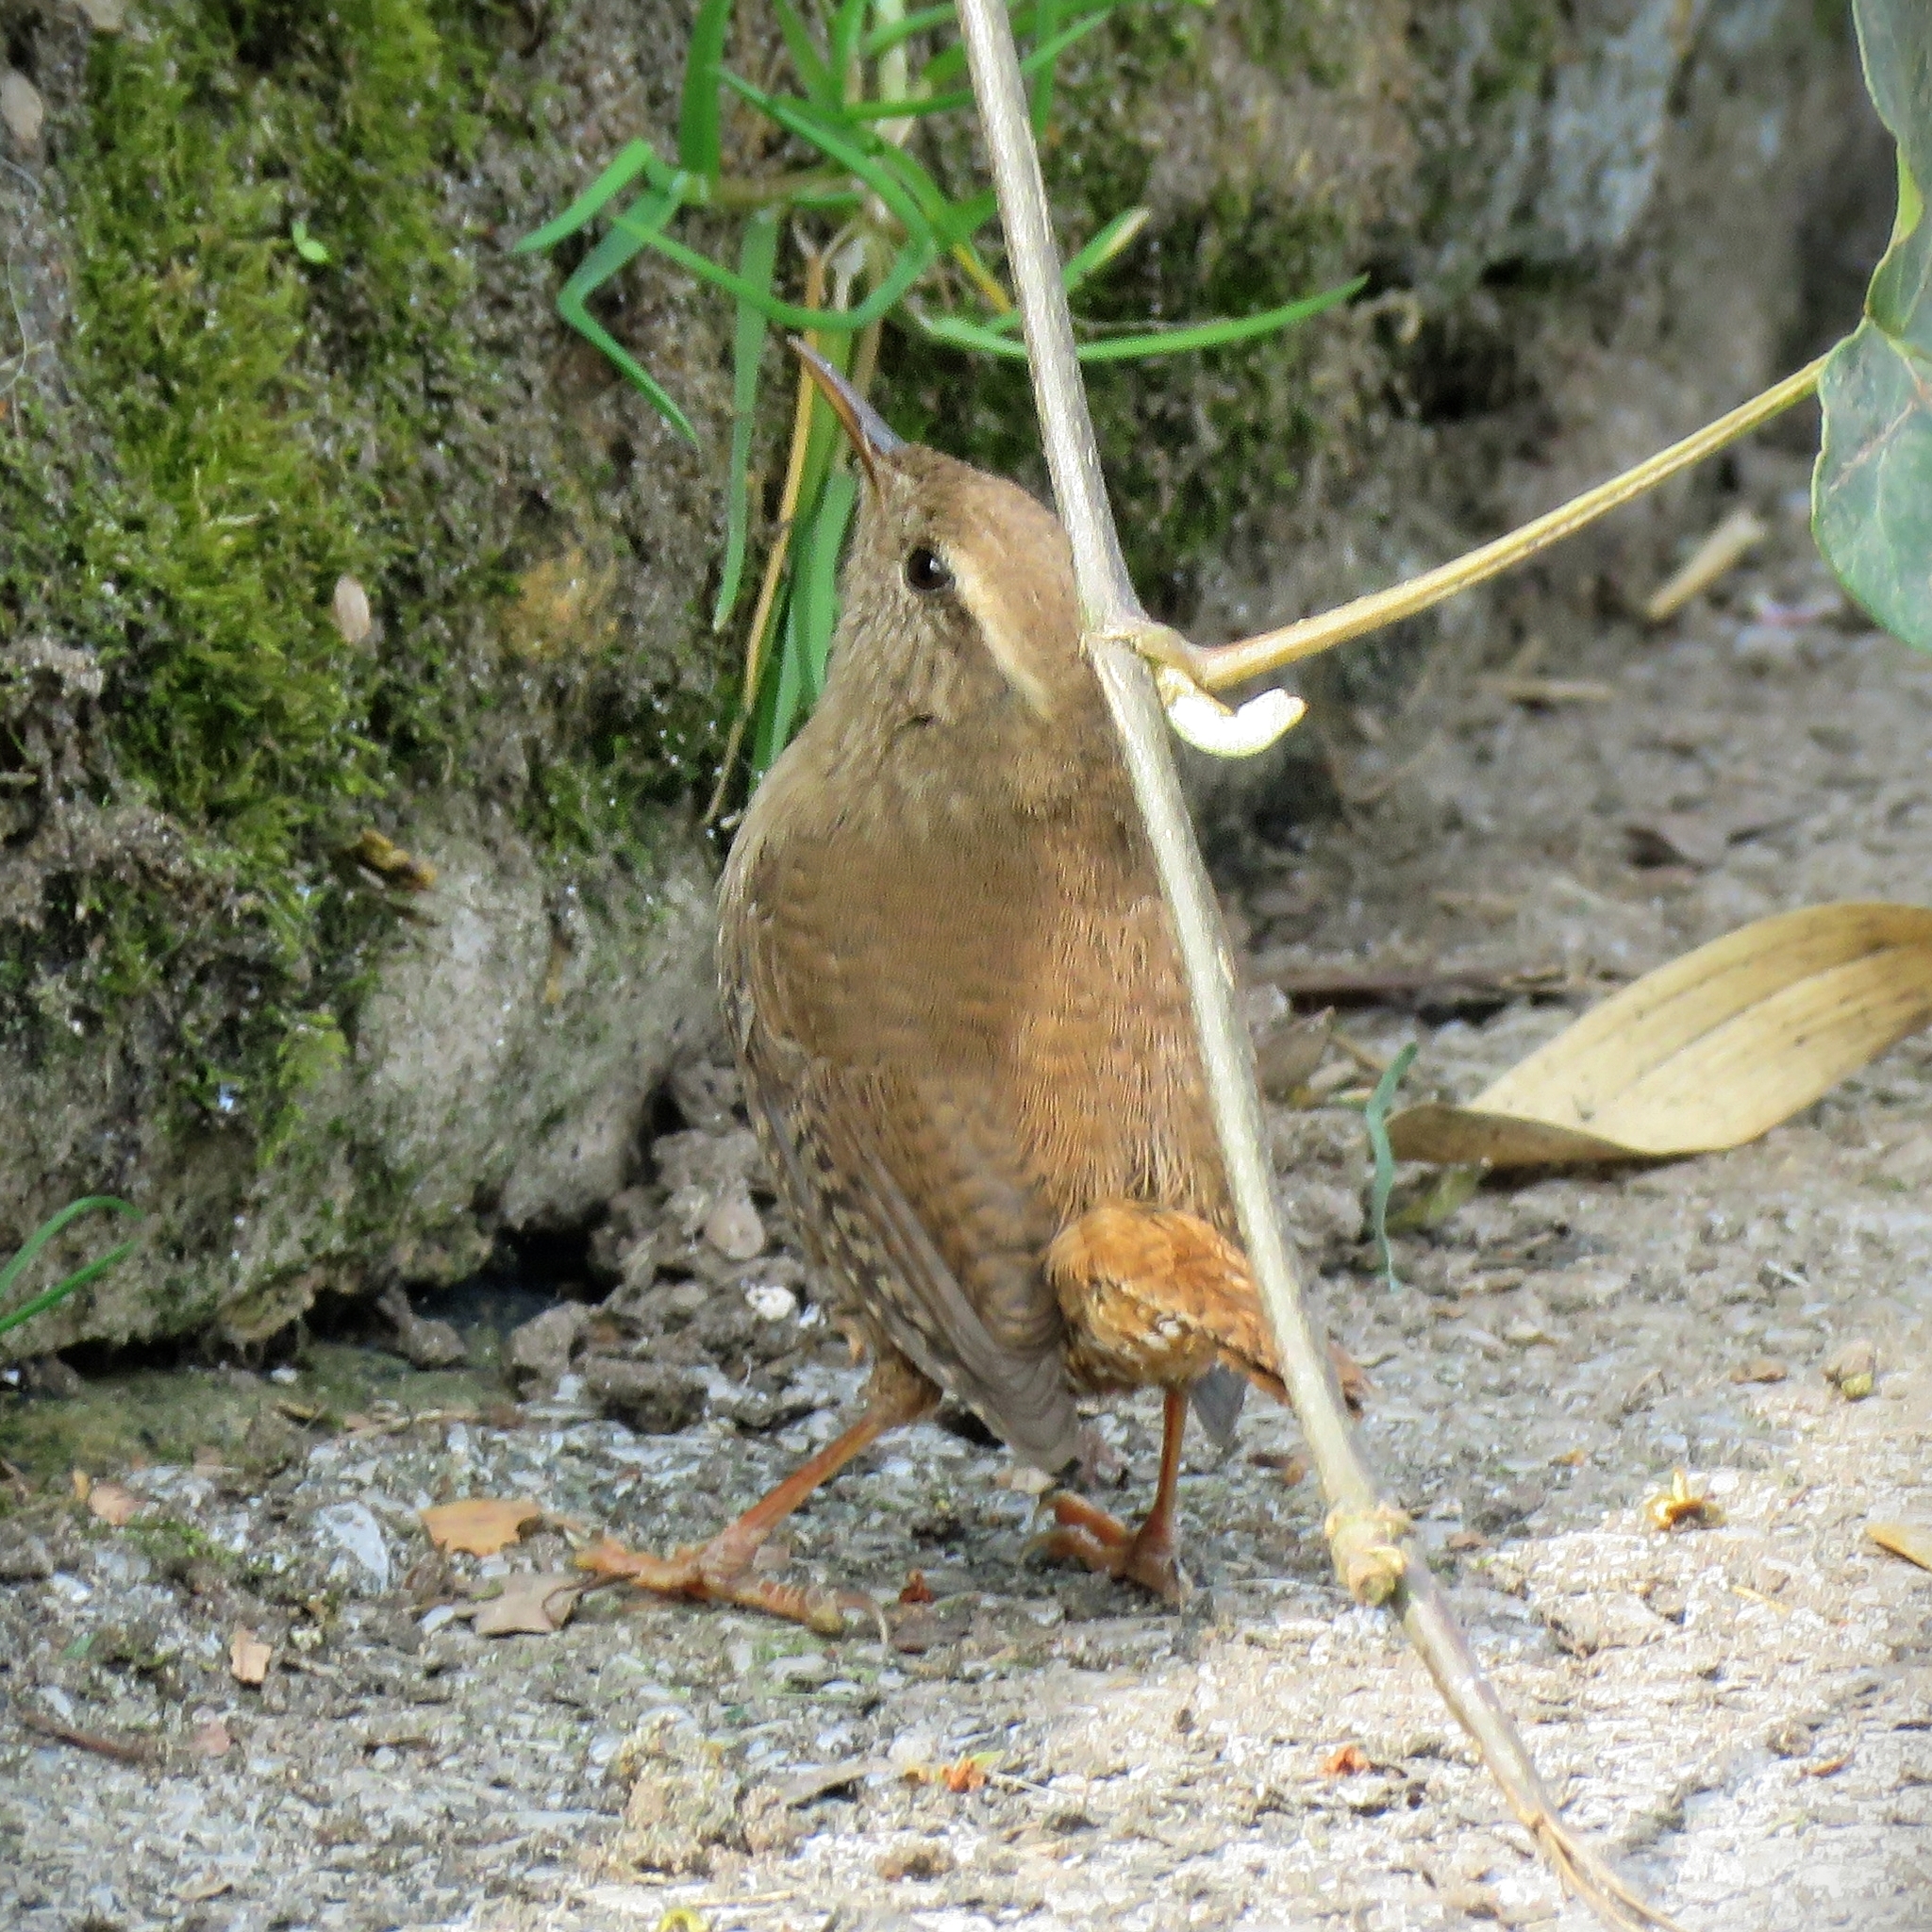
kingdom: Animalia
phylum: Chordata
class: Aves
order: Passeriformes
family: Troglodytidae
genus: Troglodytes
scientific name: Troglodytes troglodytes
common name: Eurasian wren
